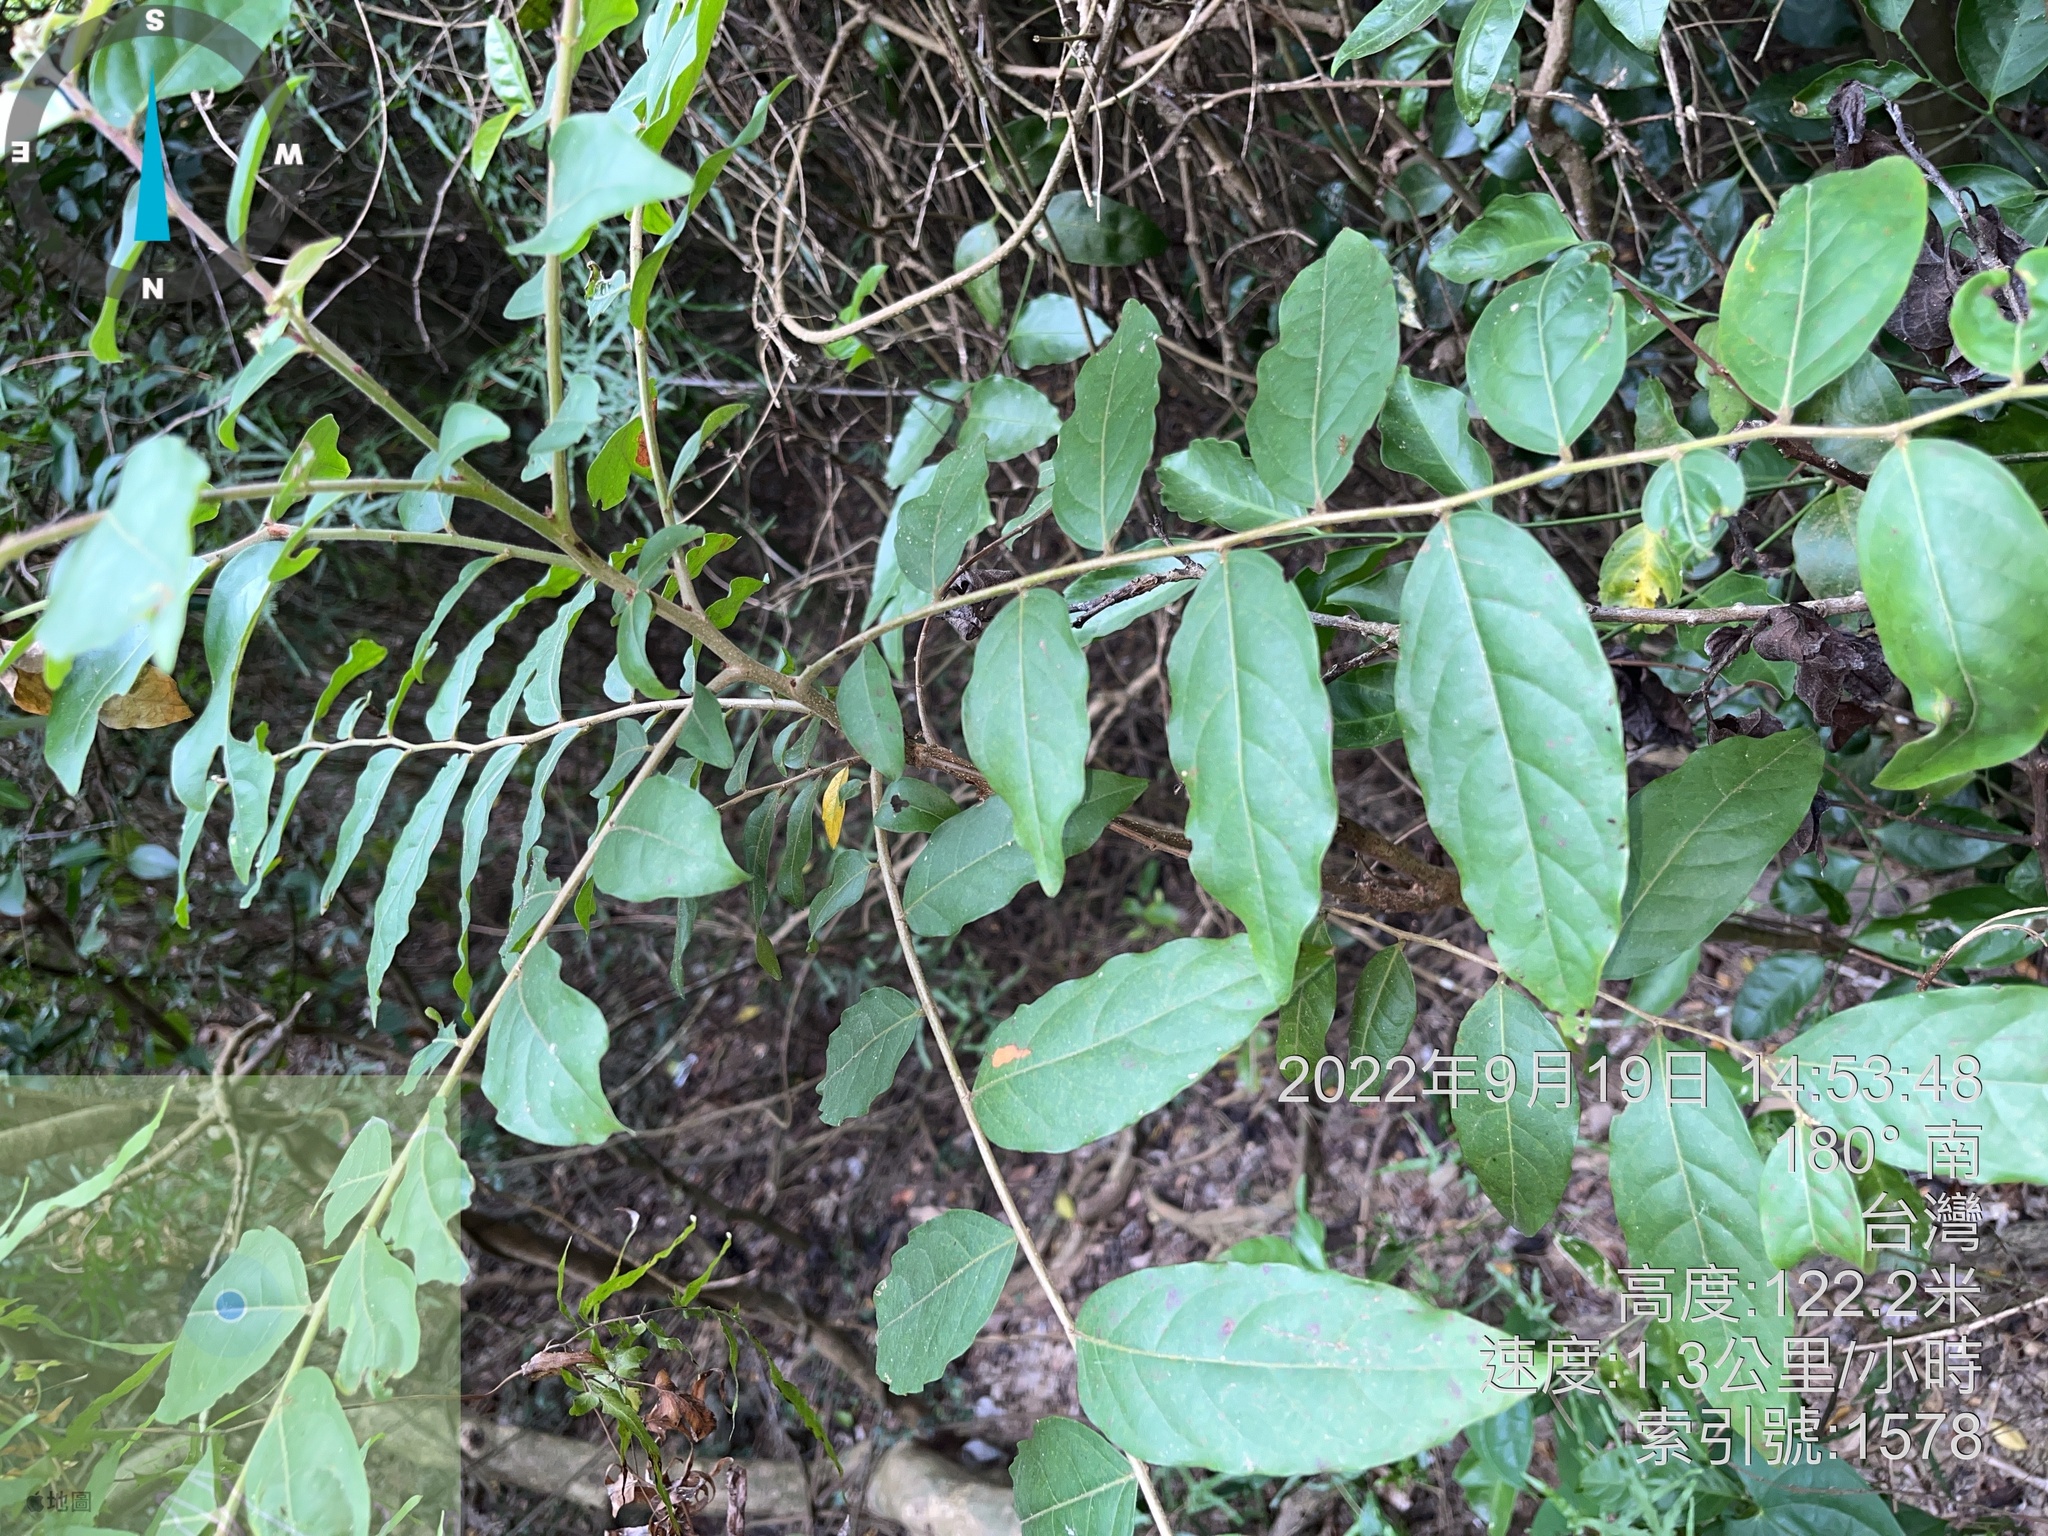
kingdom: Plantae
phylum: Tracheophyta
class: Magnoliopsida
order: Malpighiales
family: Phyllanthaceae
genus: Glochidion
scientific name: Glochidion philippicum
